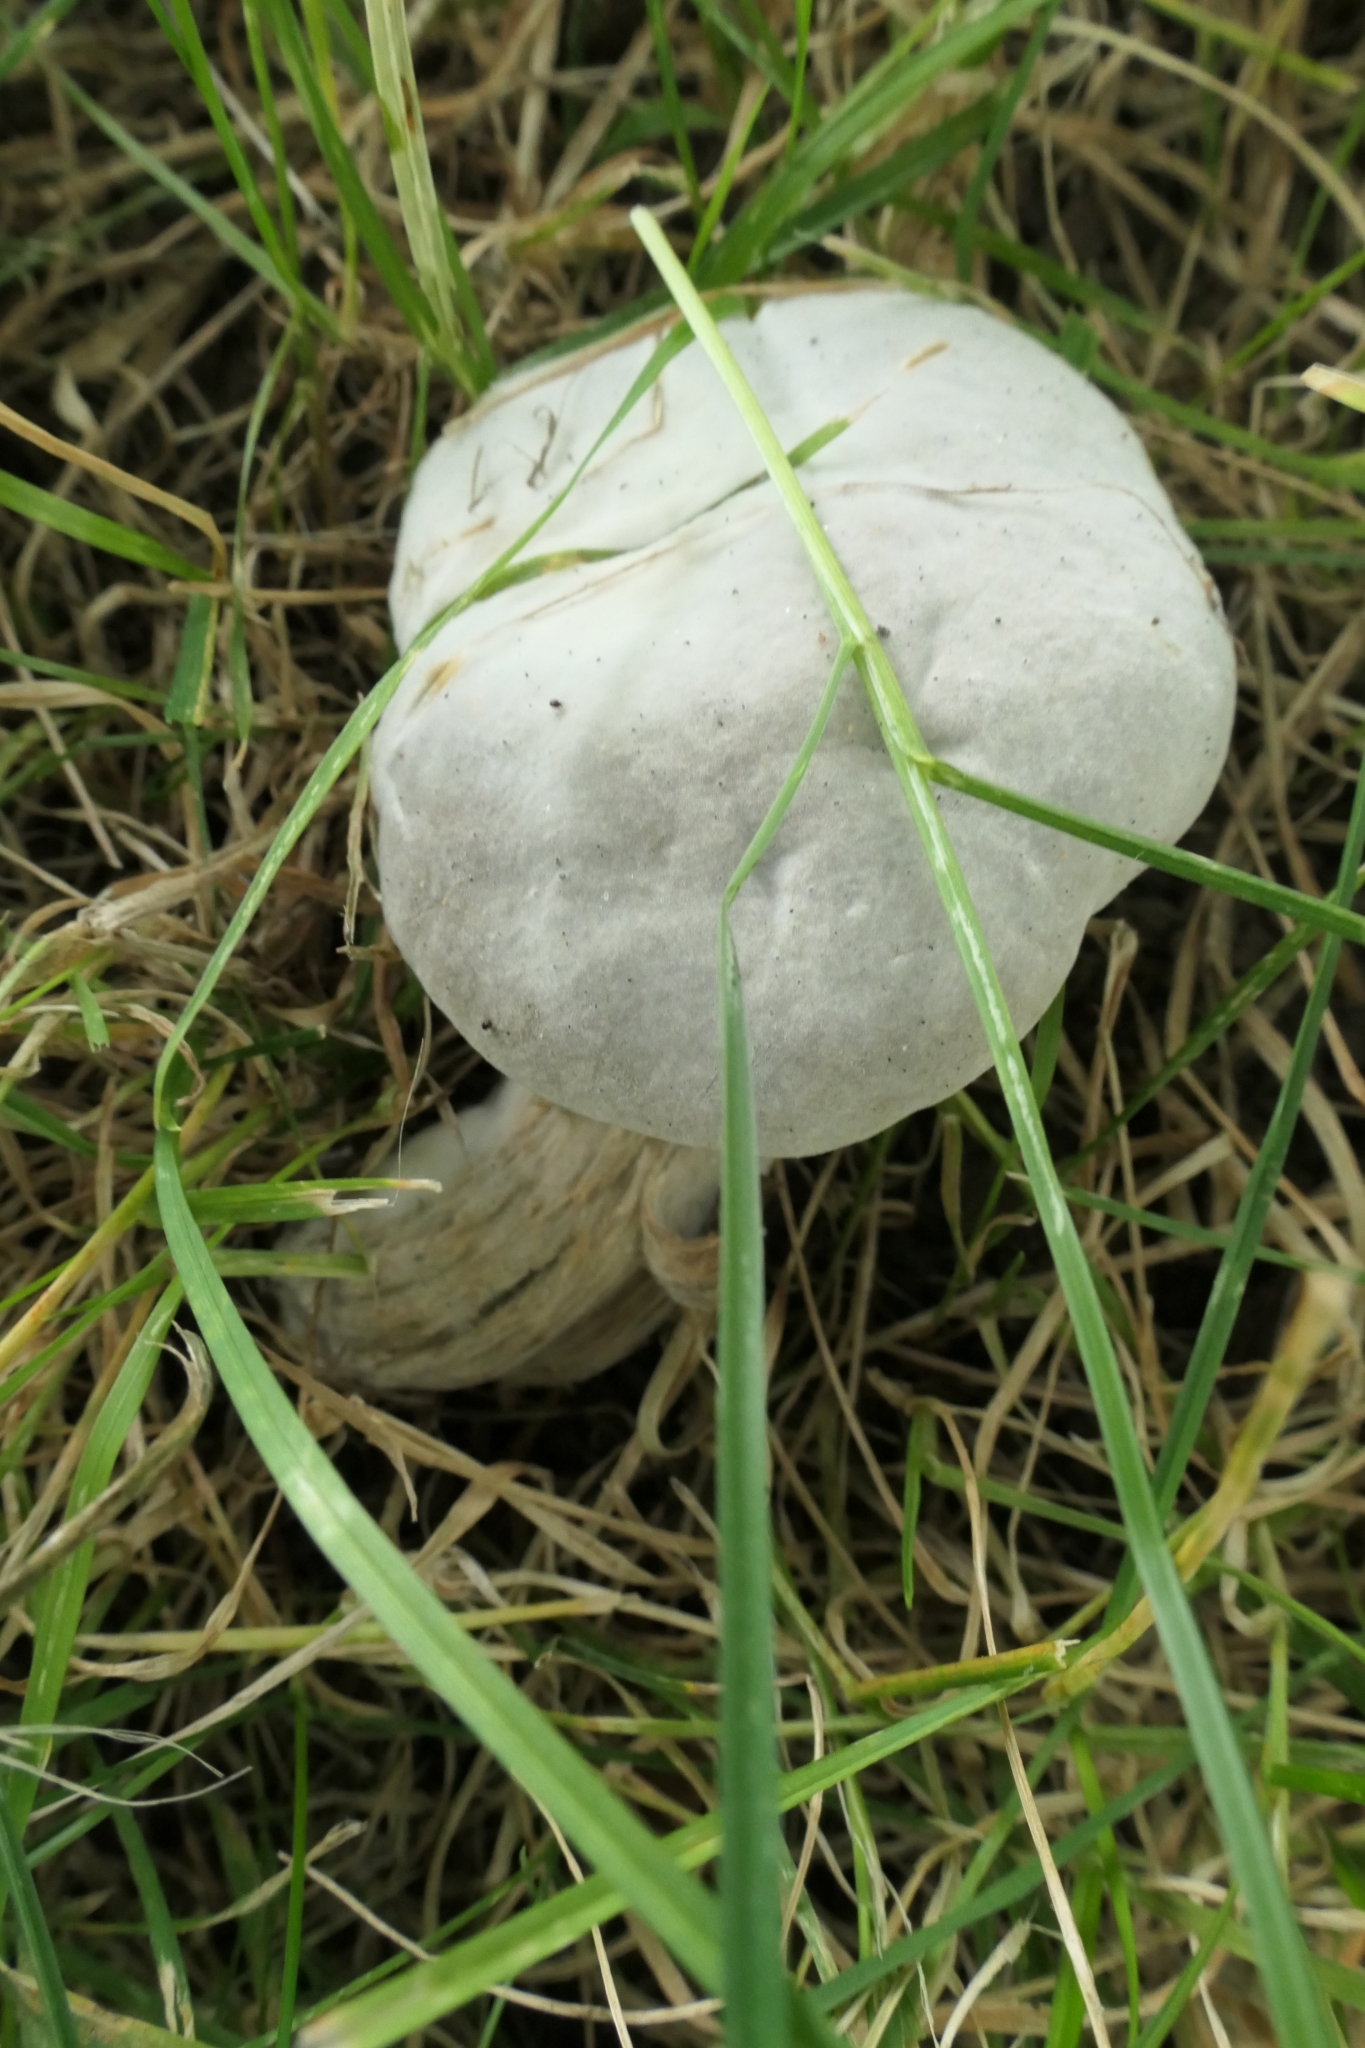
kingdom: Fungi
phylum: Ascomycota
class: Sordariomycetes
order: Hypocreales
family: Hypocreaceae
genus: Hypomyces
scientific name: Hypomyces chrysospermus
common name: Bolete mould
